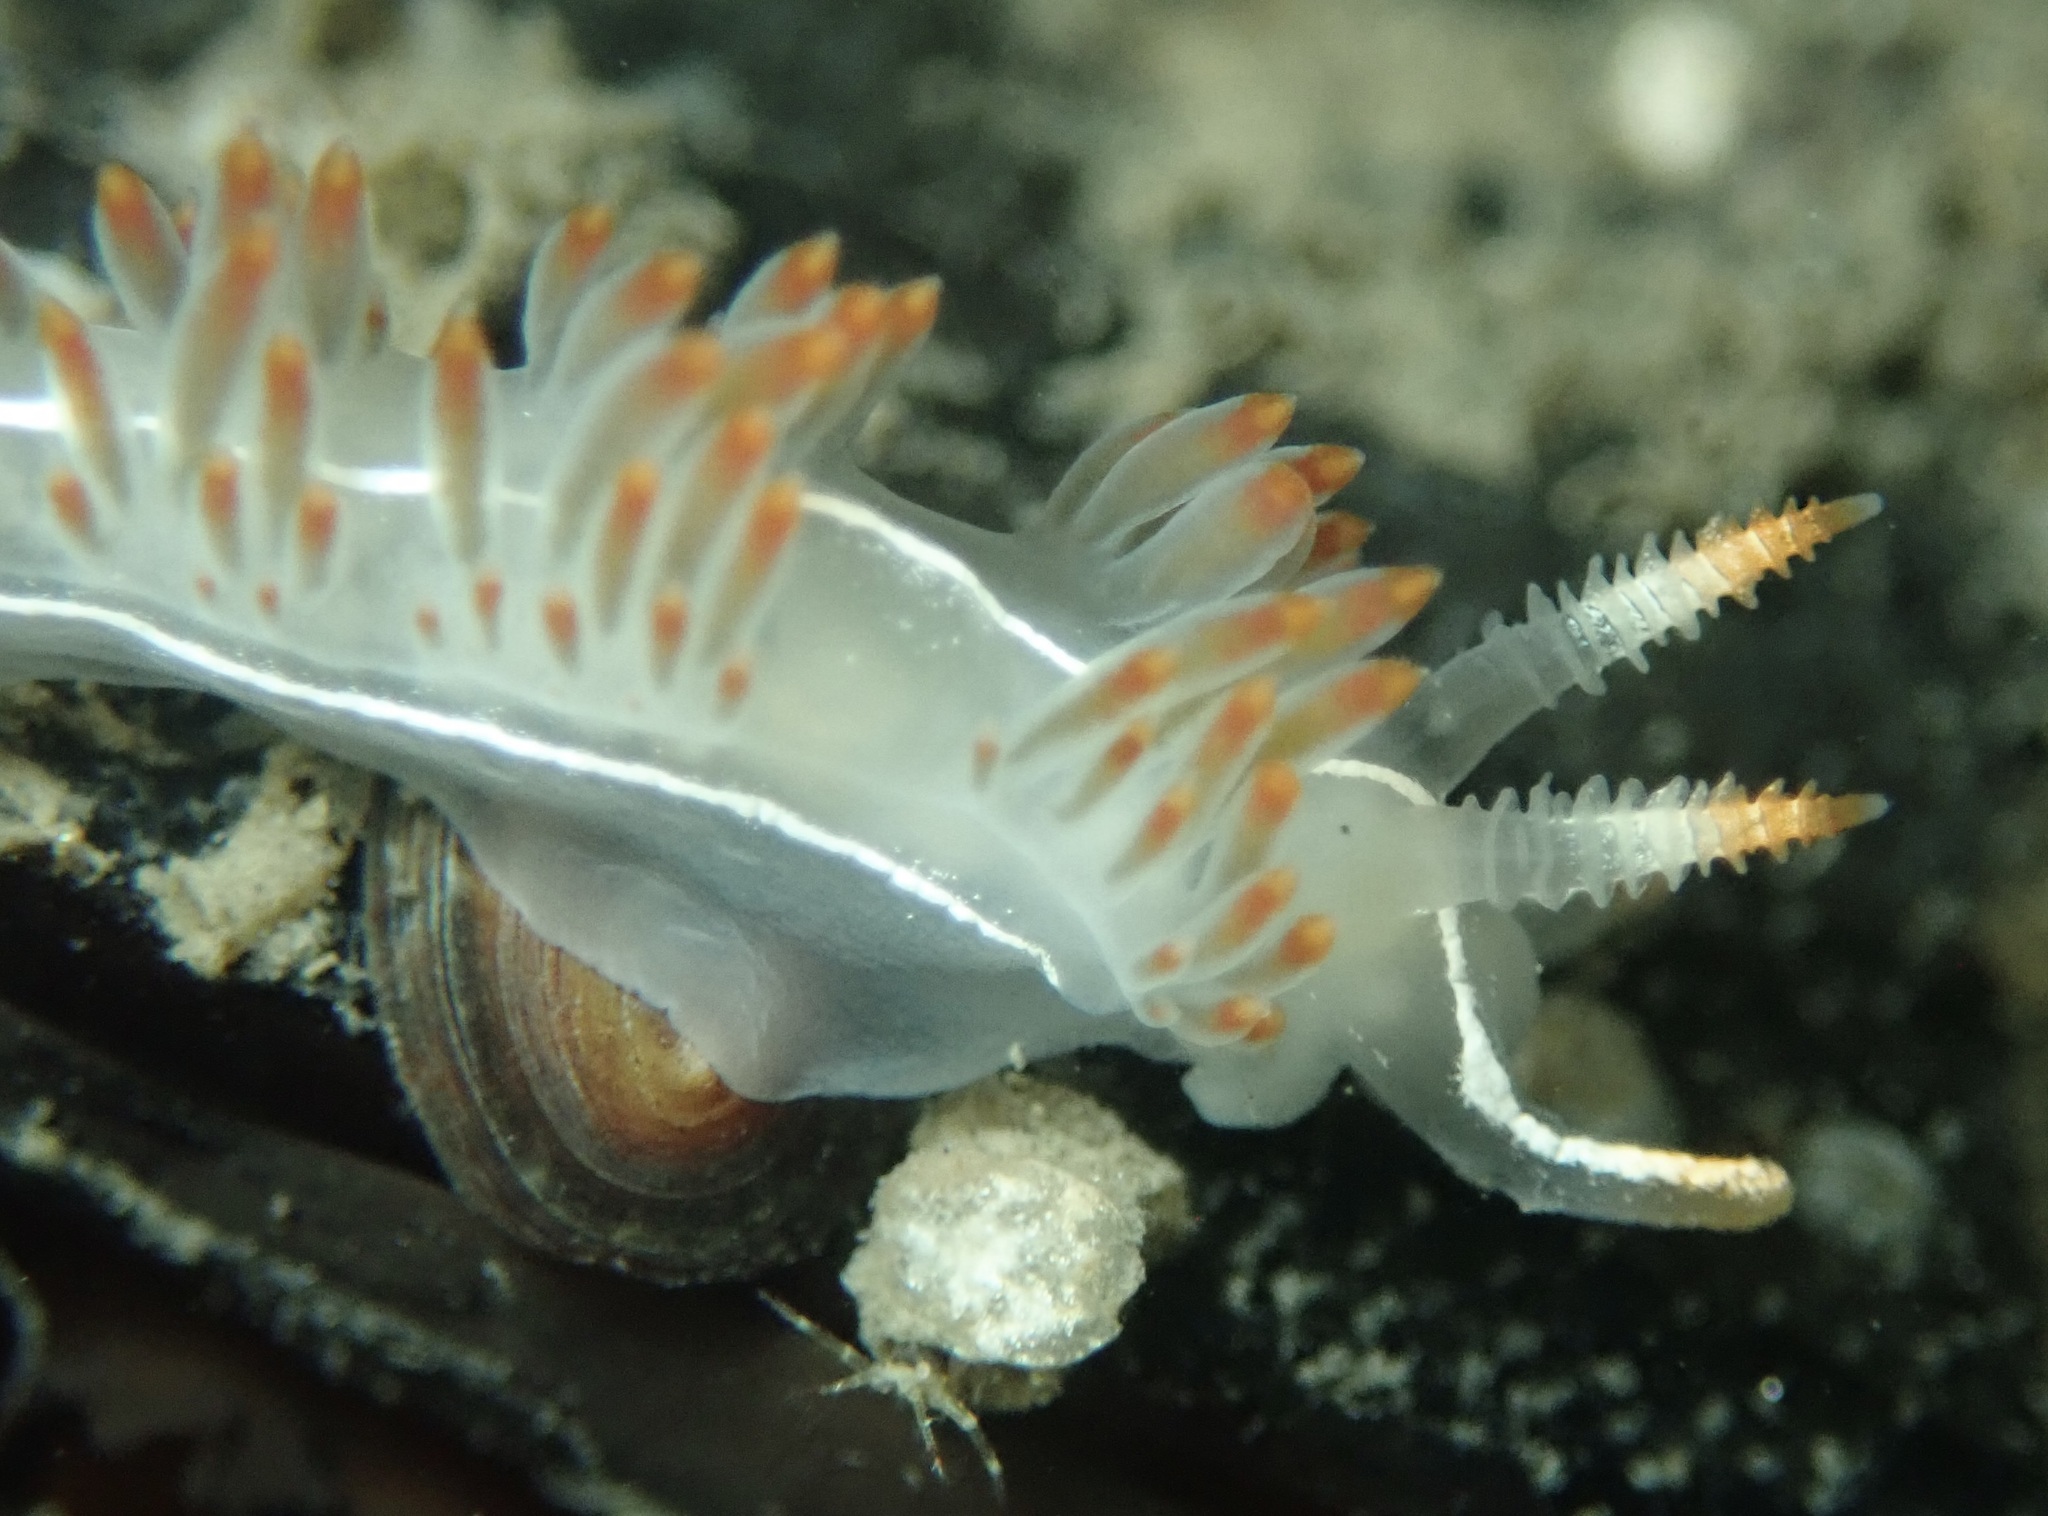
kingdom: Animalia
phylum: Mollusca
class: Gastropoda
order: Nudibranchia
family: Coryphellidae
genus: Coryphella
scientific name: Coryphella trilineata
